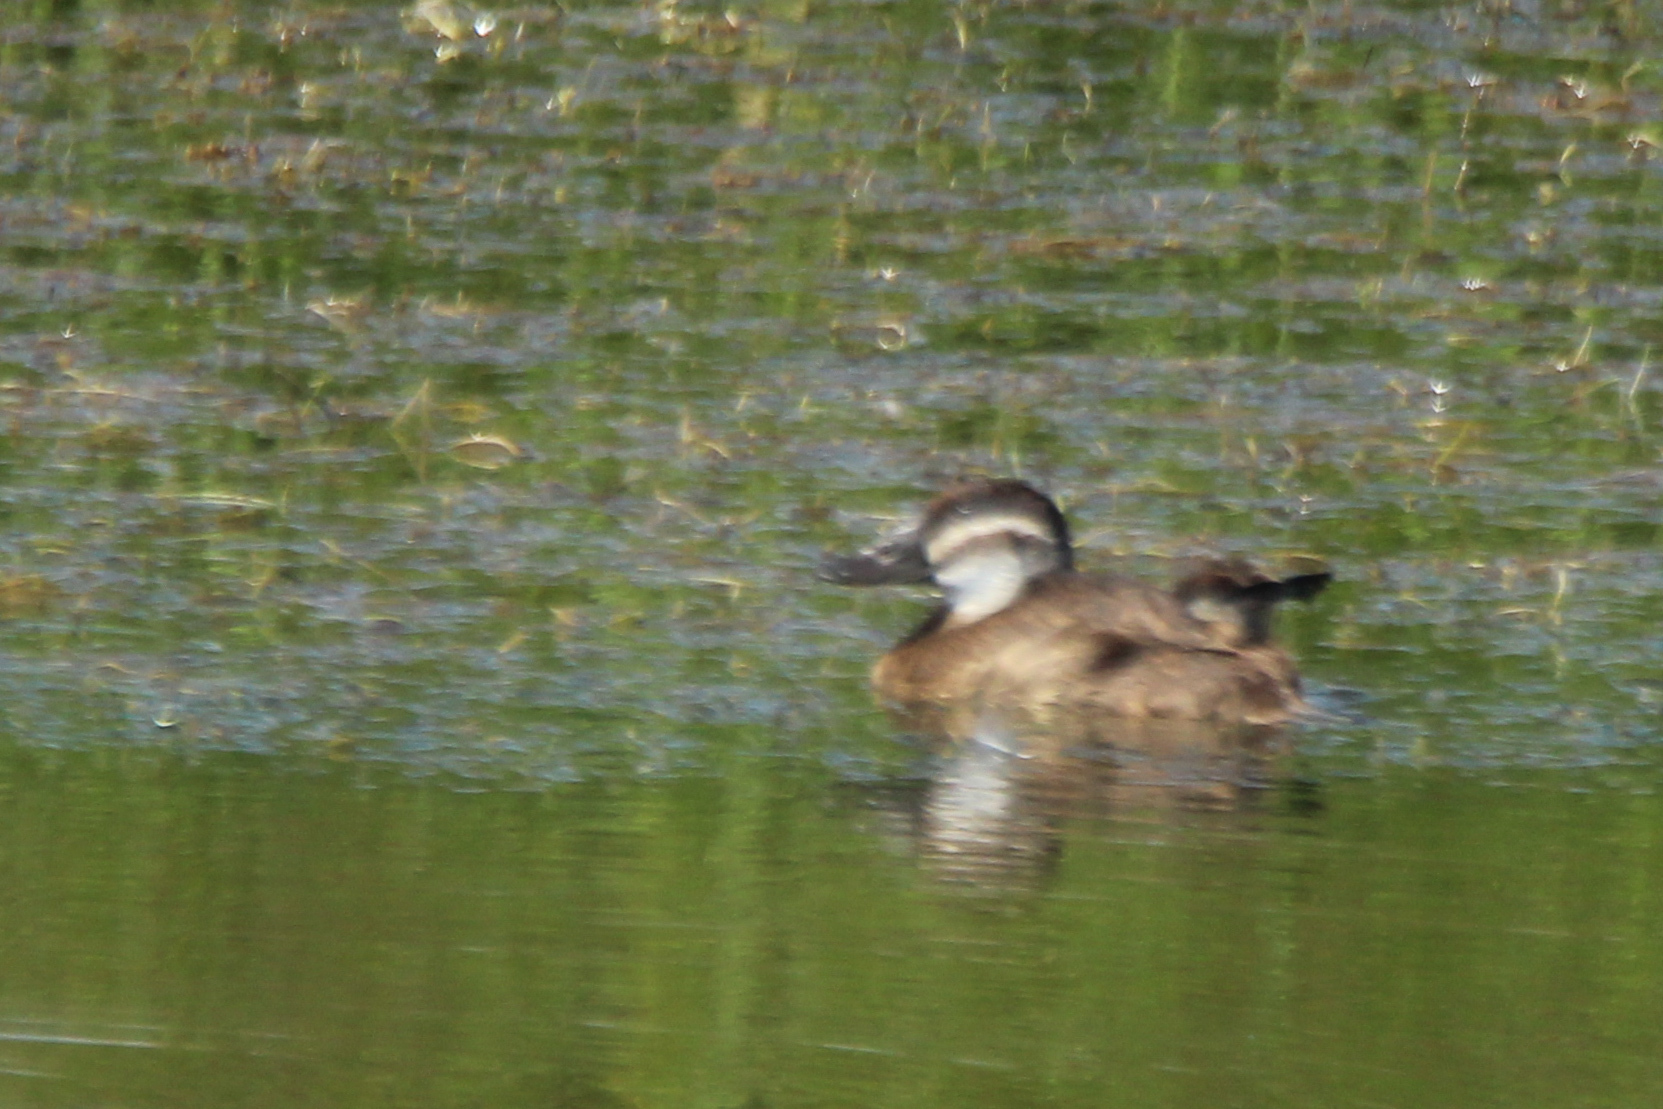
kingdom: Animalia
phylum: Chordata
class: Aves
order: Anseriformes
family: Anatidae
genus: Oxyura
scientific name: Oxyura leucocephala
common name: White-headed duck
